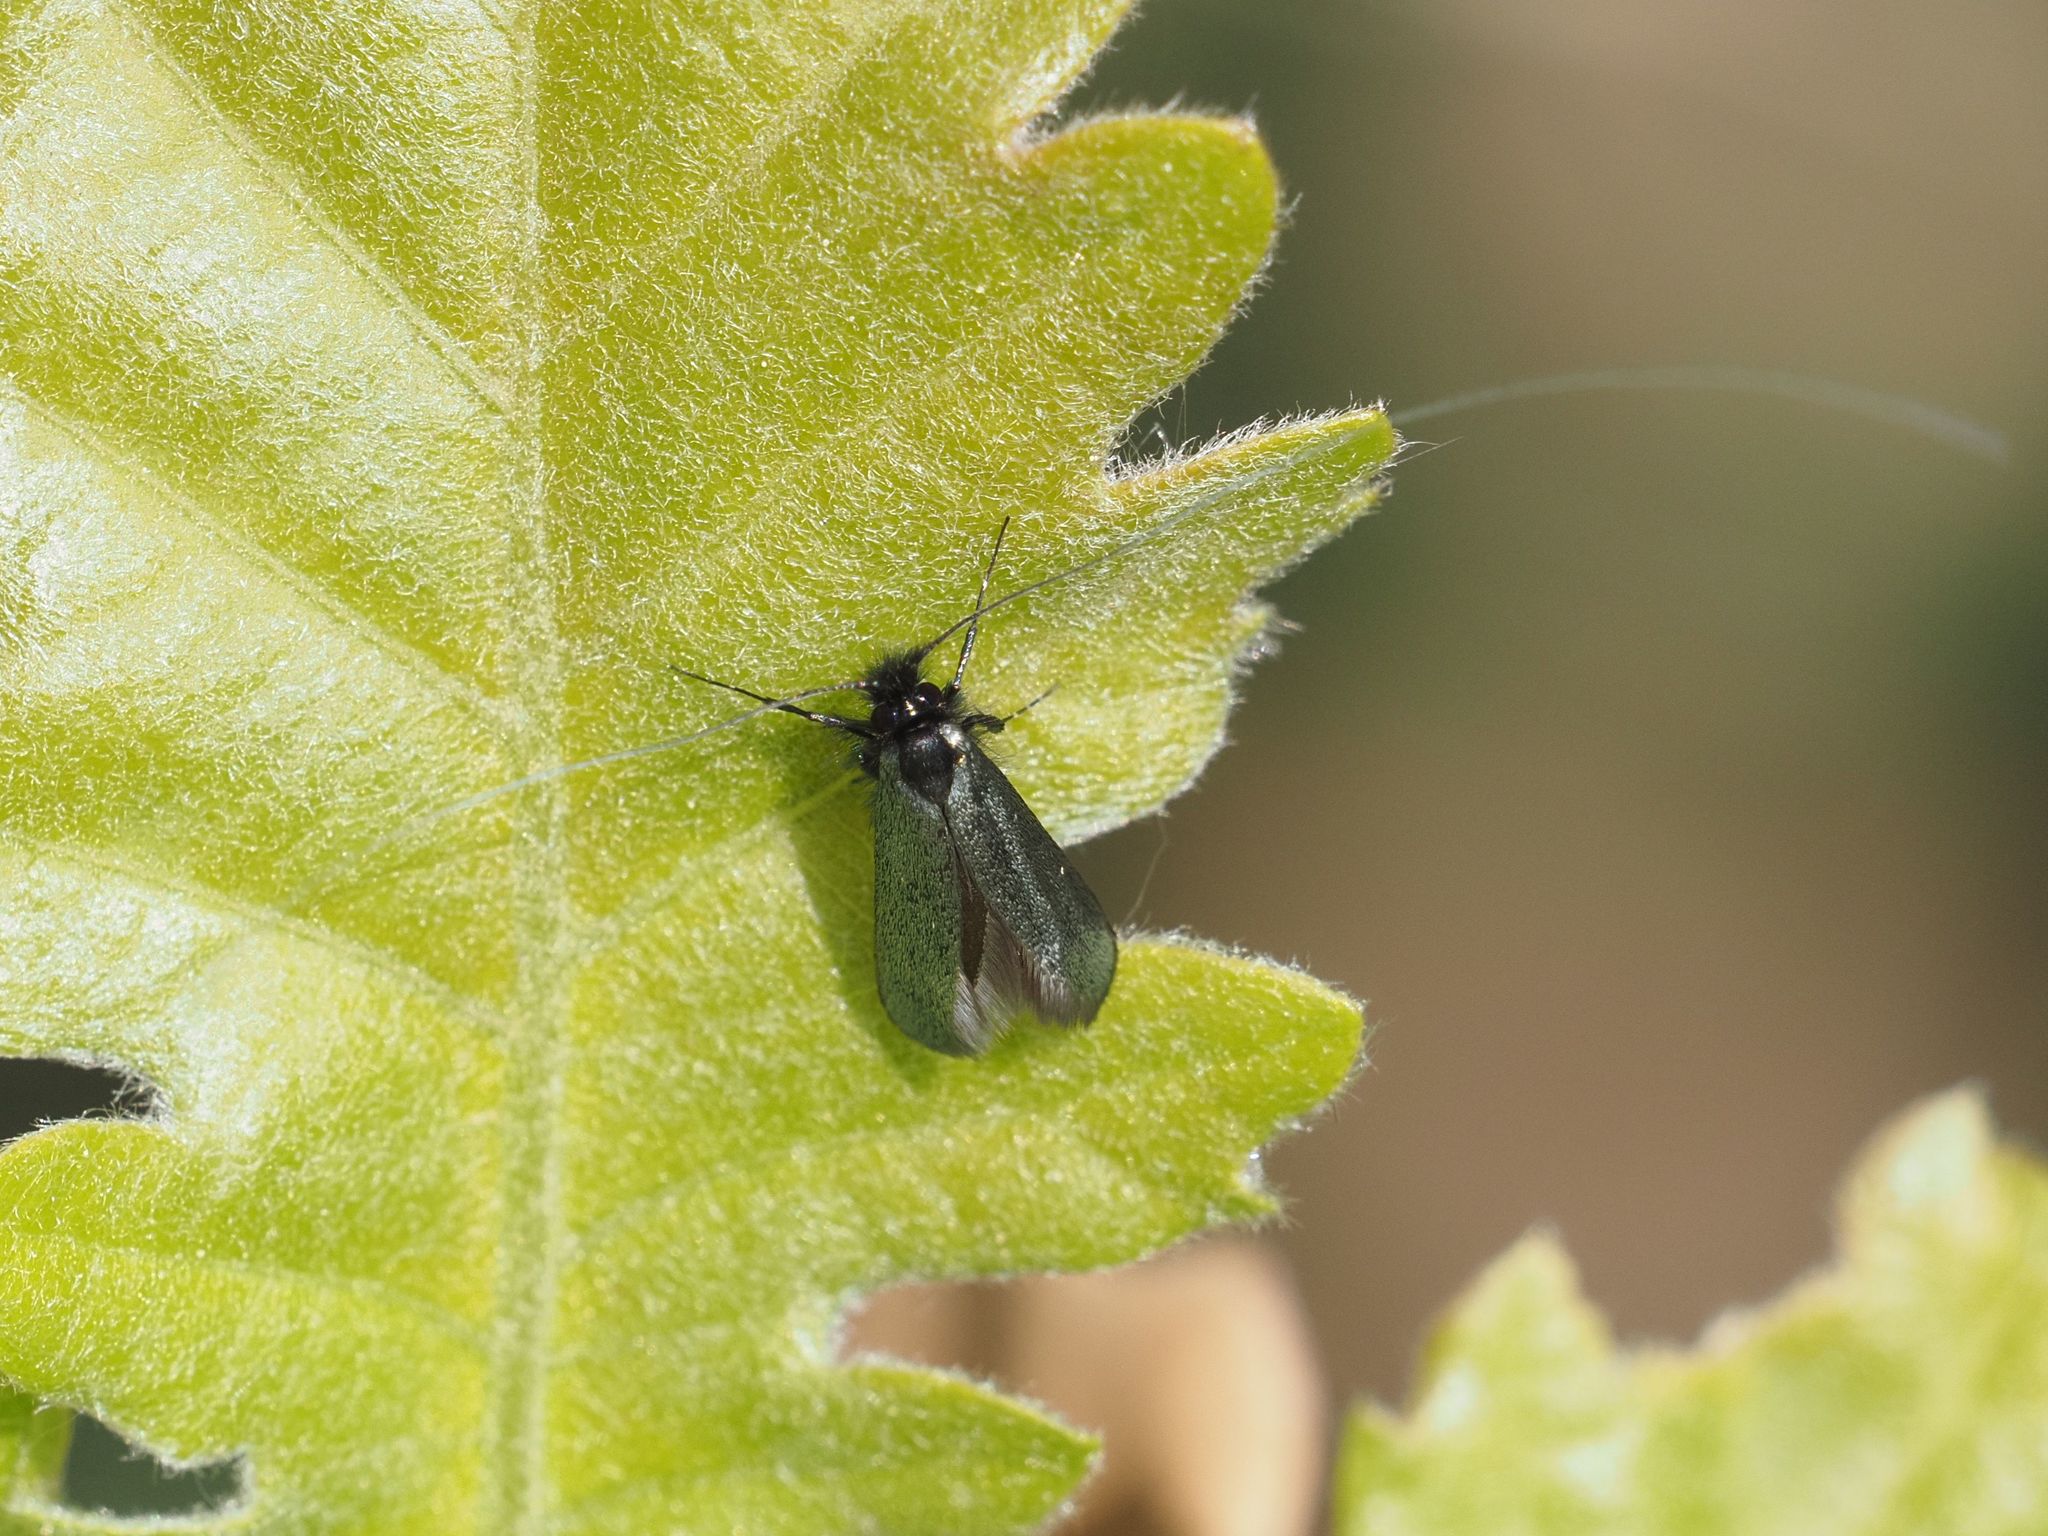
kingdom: Animalia
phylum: Arthropoda
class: Insecta
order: Lepidoptera
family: Adelidae
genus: Adela
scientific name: Adela viridella
